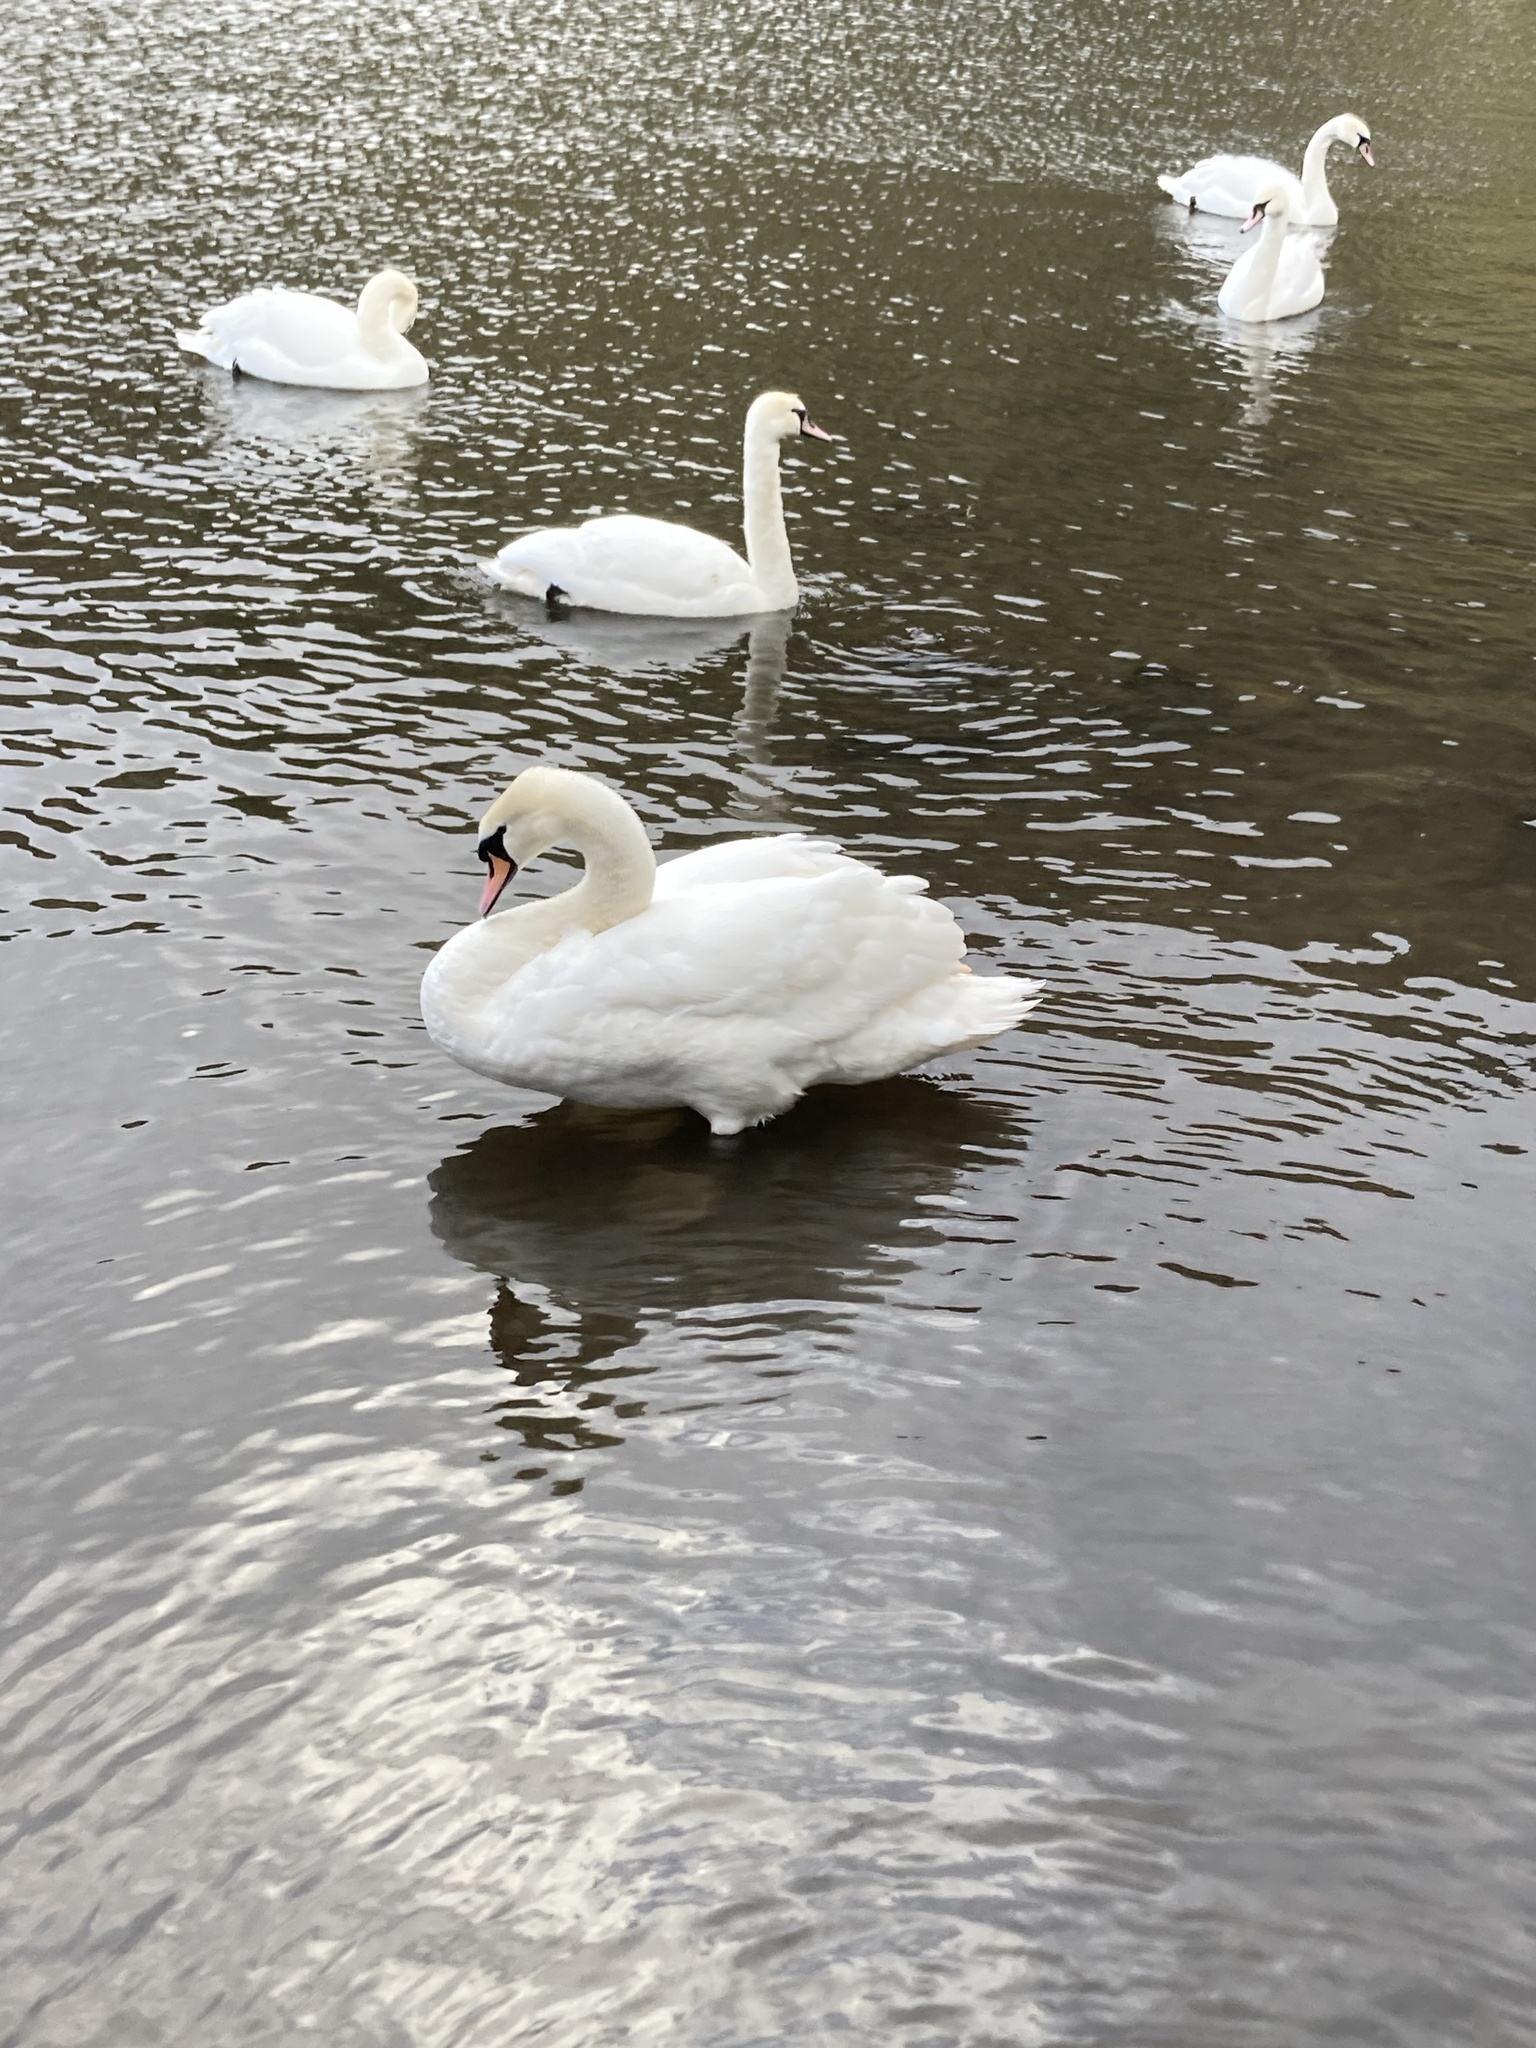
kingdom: Animalia
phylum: Chordata
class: Aves
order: Anseriformes
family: Anatidae
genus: Cygnus
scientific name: Cygnus olor
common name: Mute swan
